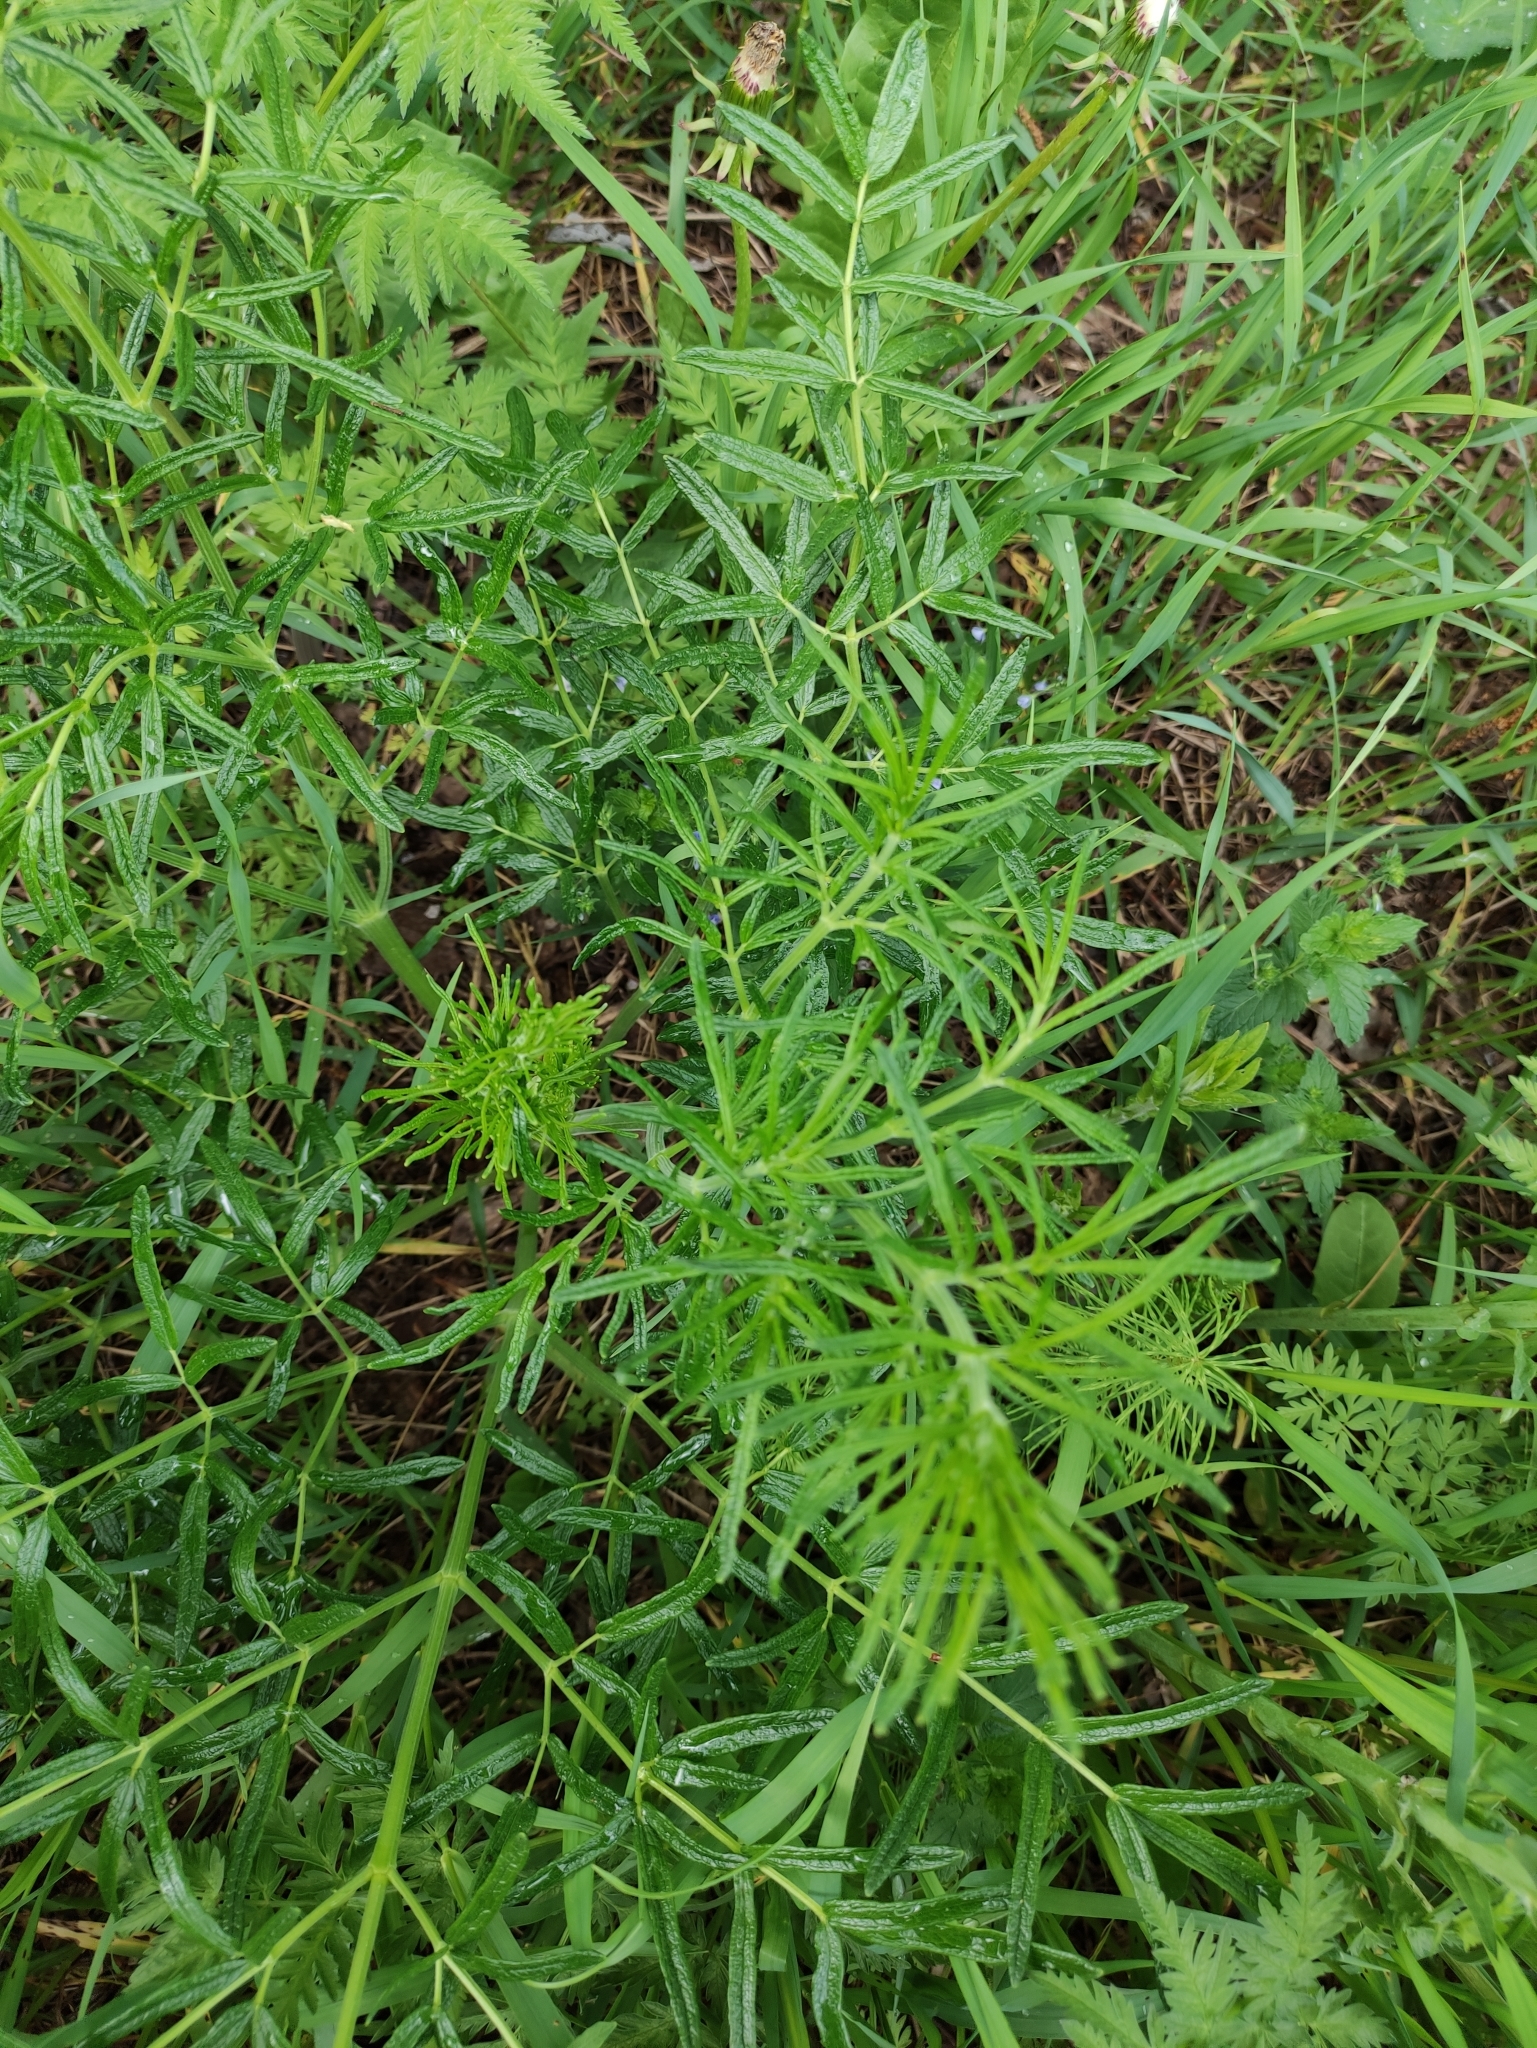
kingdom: Plantae
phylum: Tracheophyta
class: Magnoliopsida
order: Ranunculales
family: Ranunculaceae
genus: Thalictrum
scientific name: Thalictrum lucidum
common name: Shining meadow-rue
